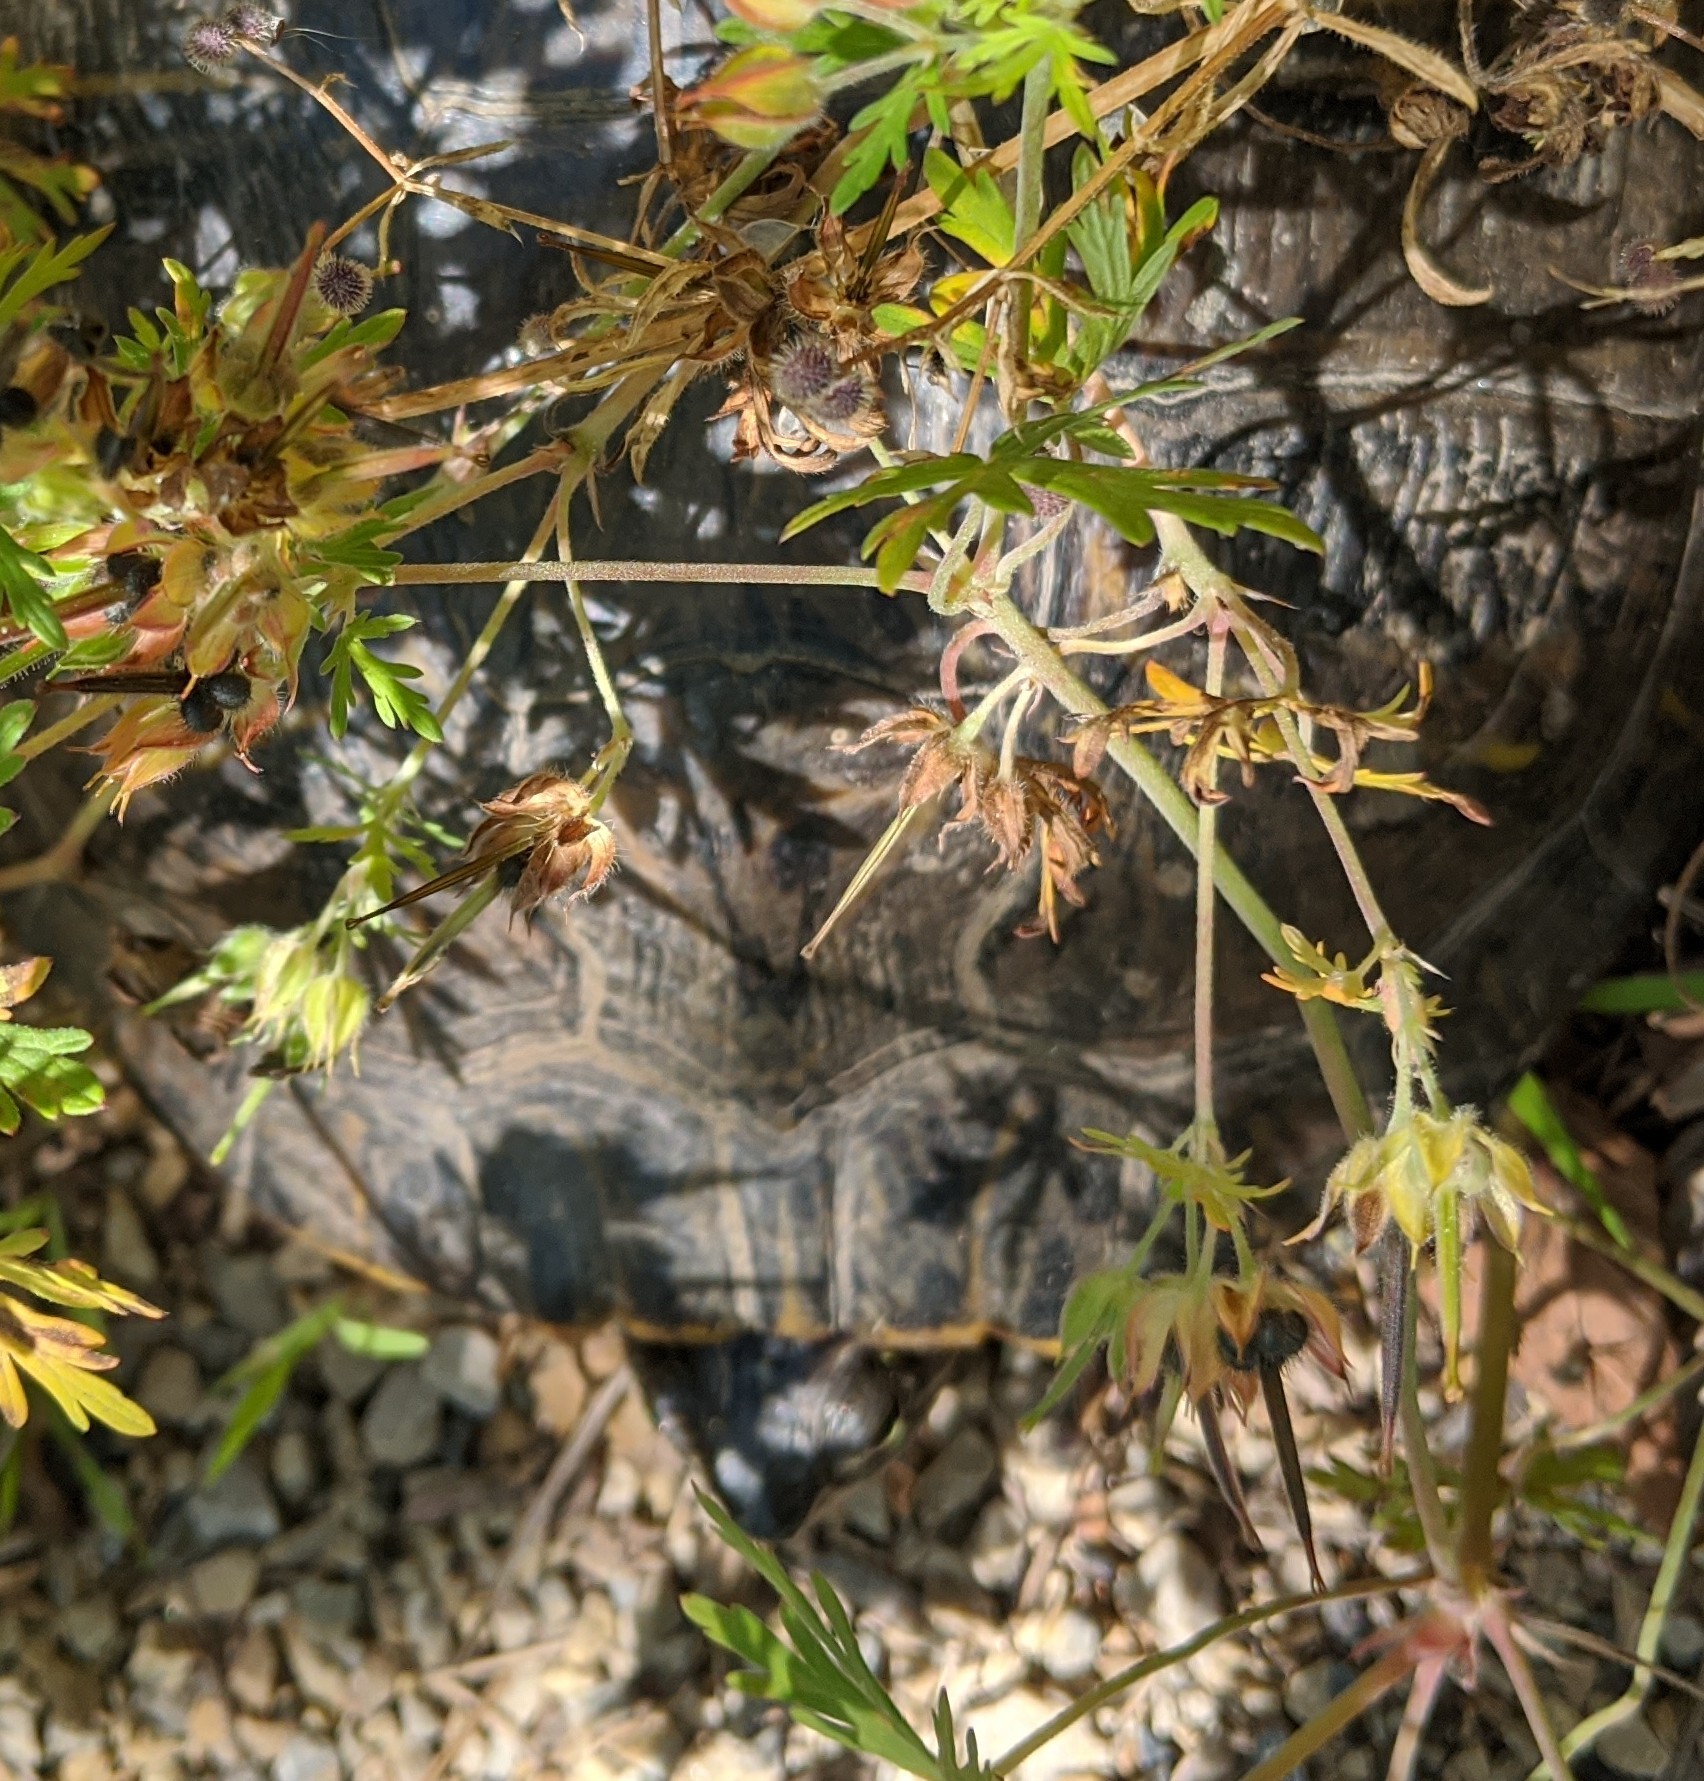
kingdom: Animalia
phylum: Chordata
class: Testudines
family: Emydidae
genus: Trachemys
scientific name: Trachemys scripta
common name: Slider
